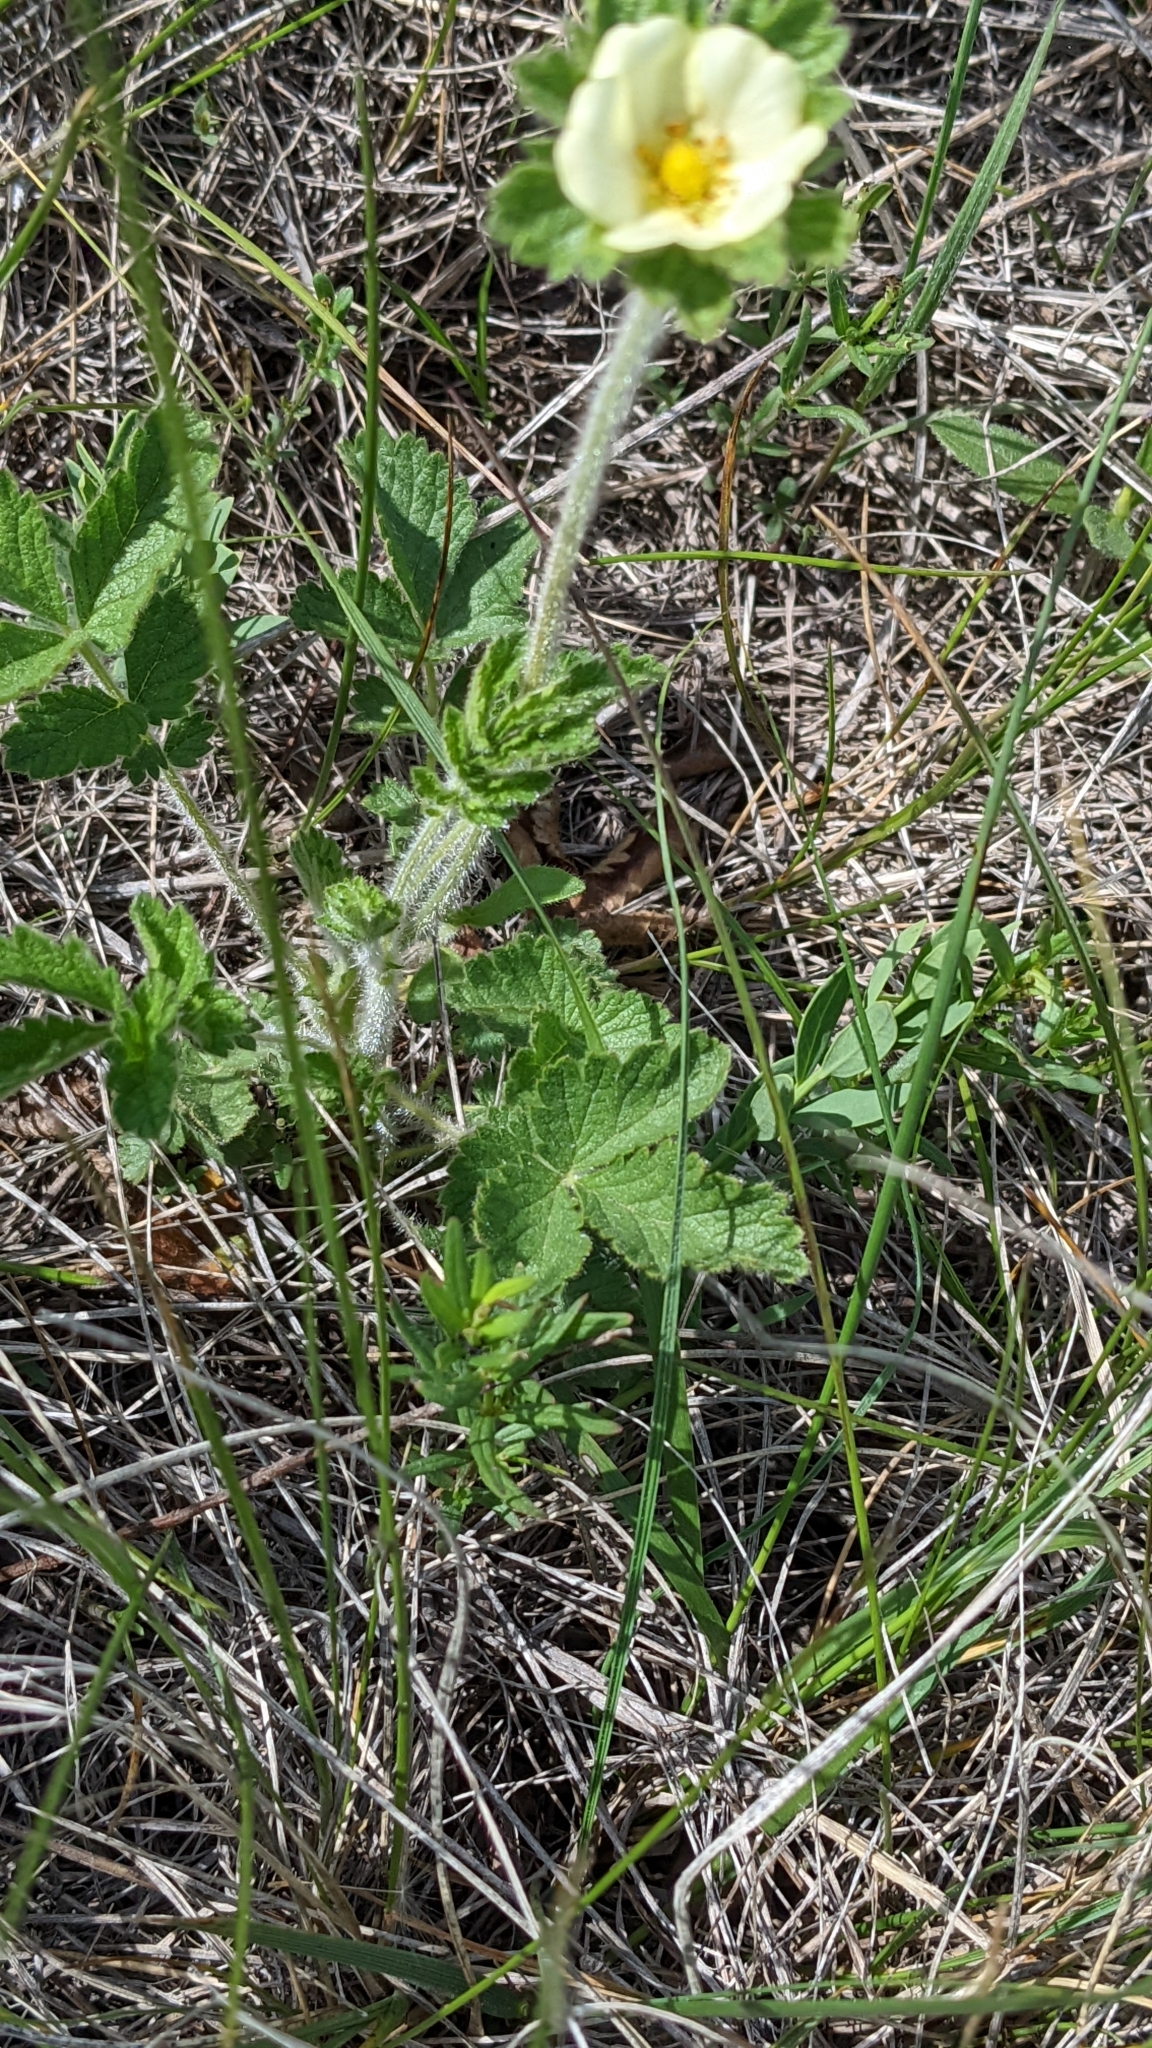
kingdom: Plantae
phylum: Tracheophyta
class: Magnoliopsida
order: Rosales
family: Rosaceae
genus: Drymocallis
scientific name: Drymocallis arguta
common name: Tall cinquefoil
